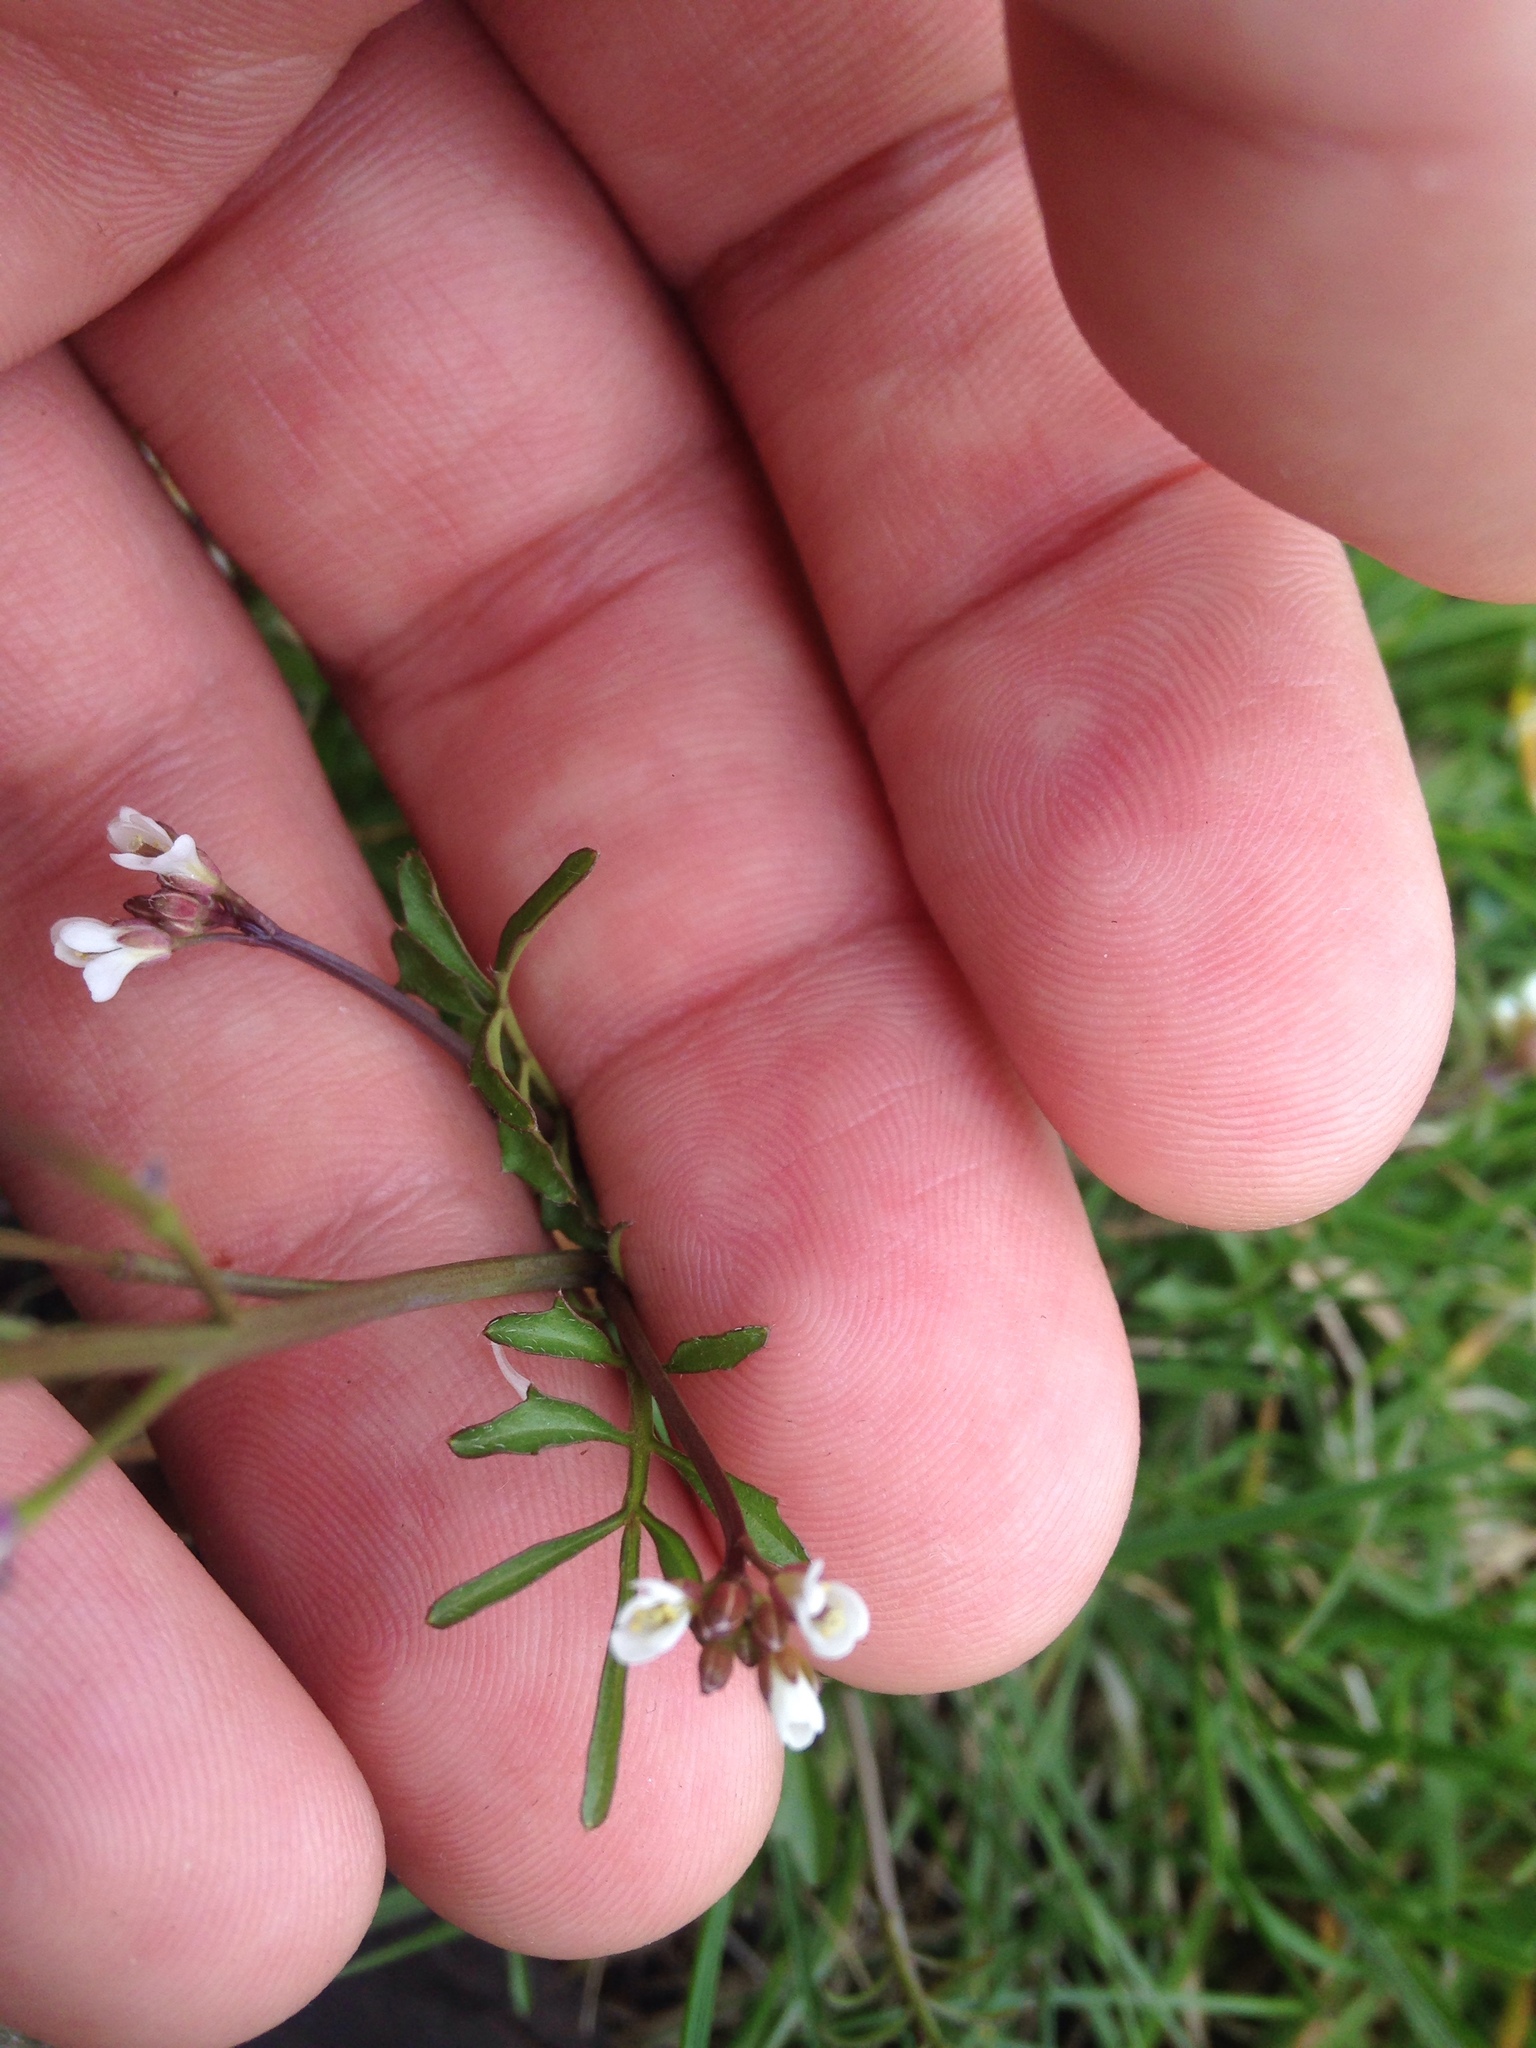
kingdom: Plantae
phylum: Tracheophyta
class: Magnoliopsida
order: Brassicales
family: Brassicaceae
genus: Cardamine
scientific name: Cardamine hirsuta
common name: Hairy bittercress
